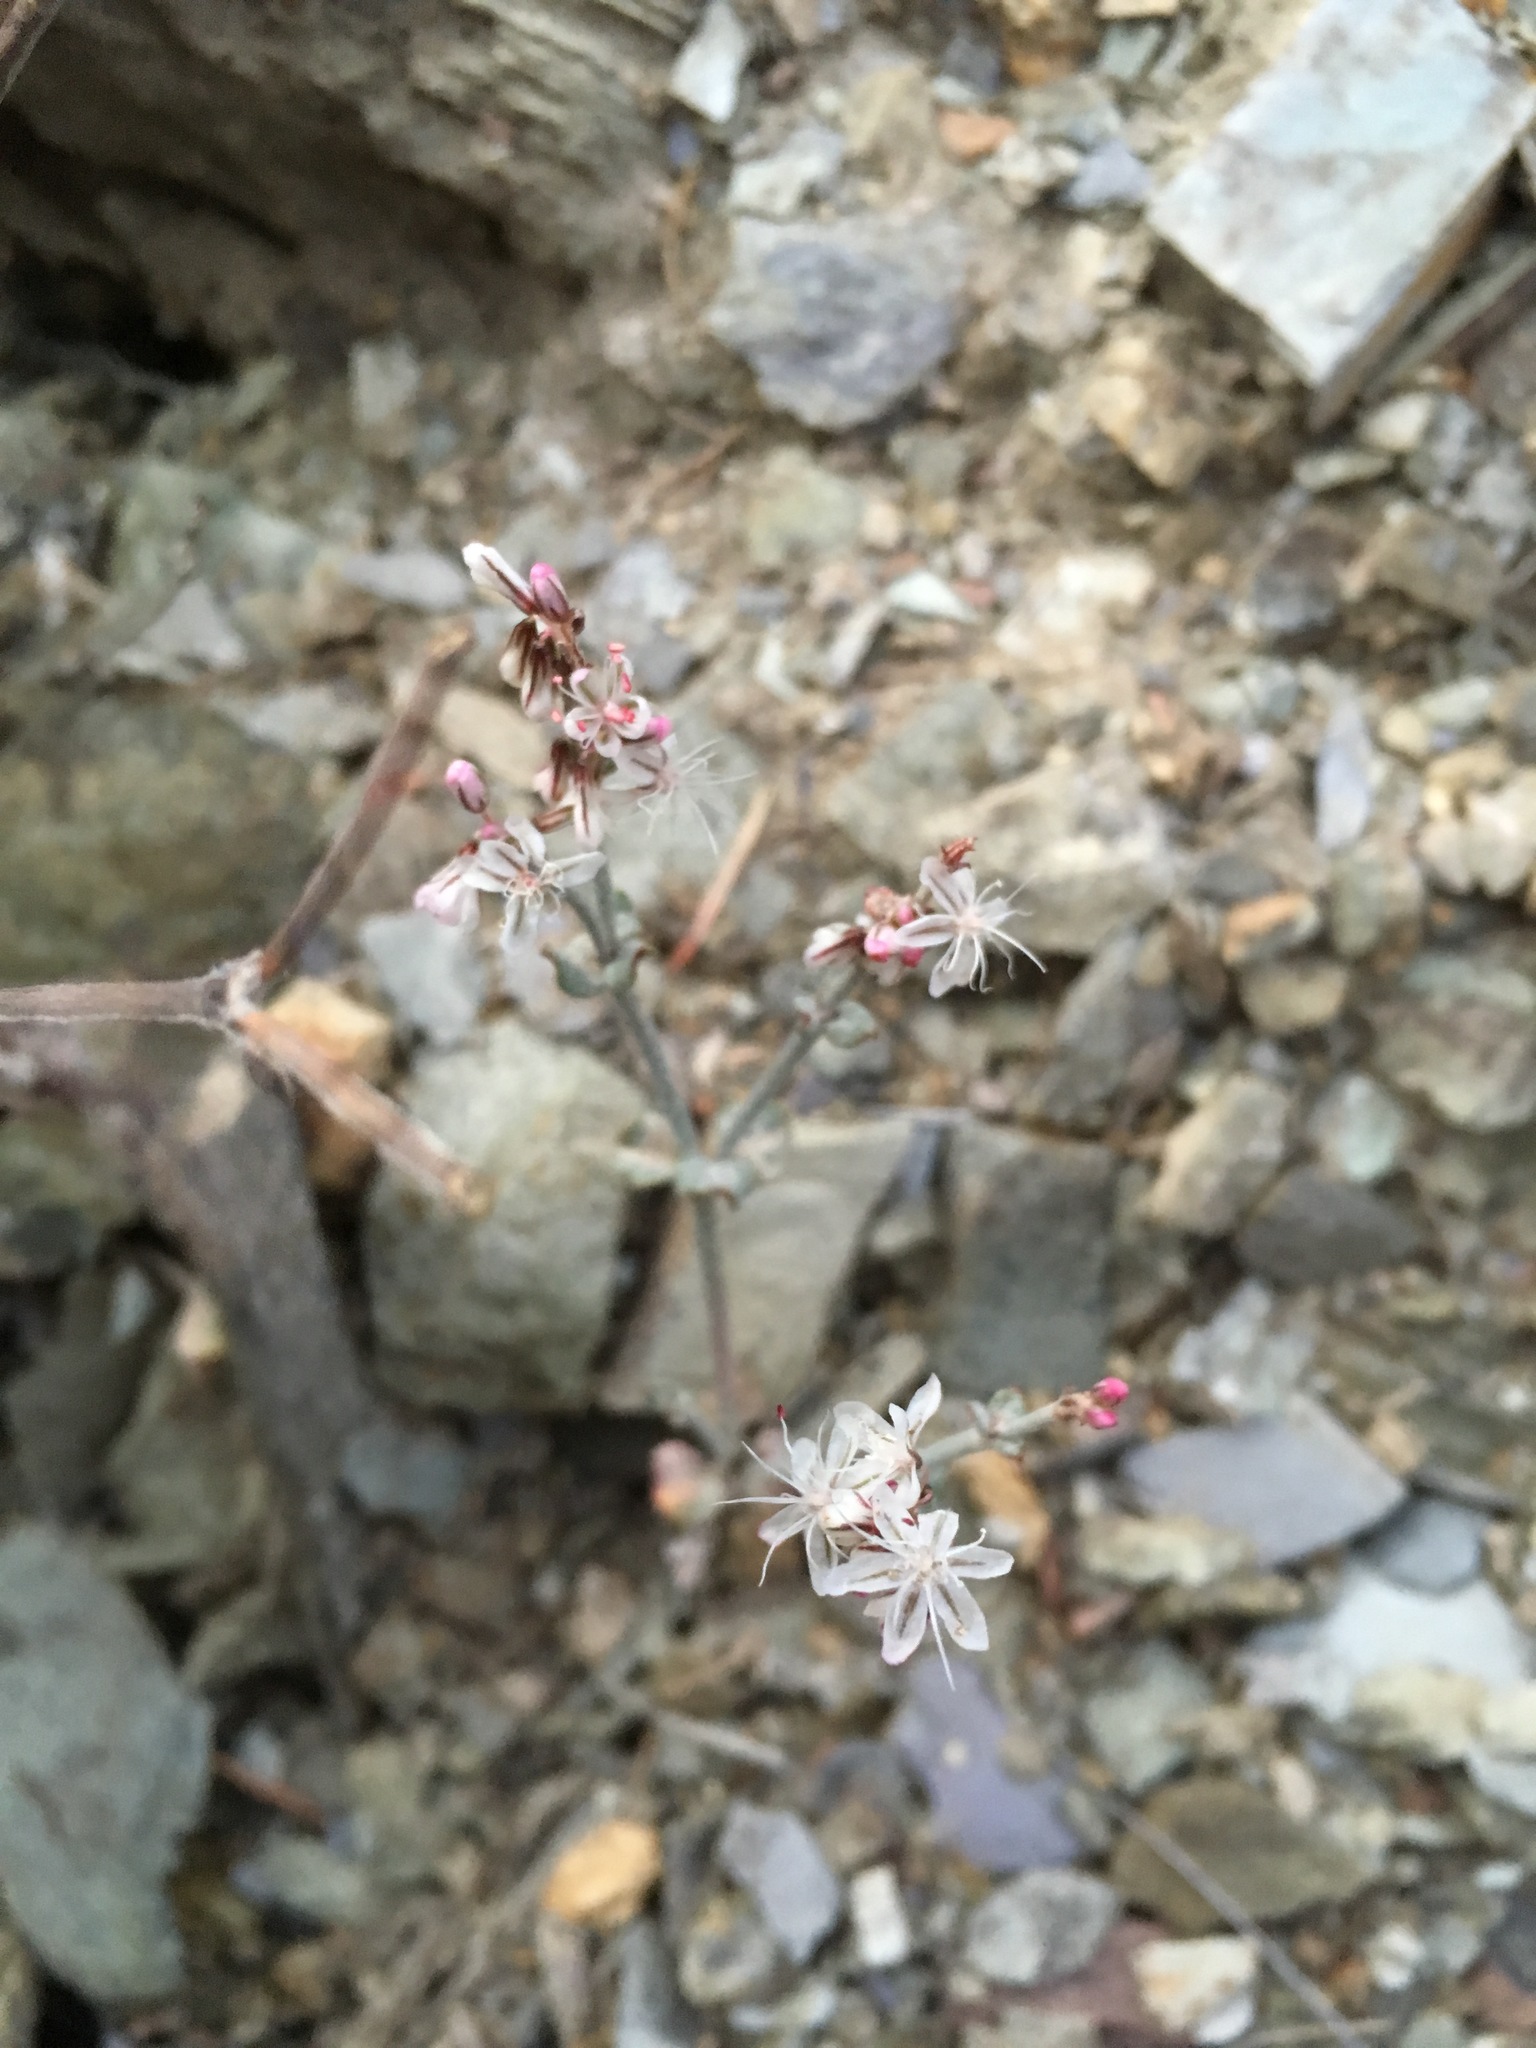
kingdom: Plantae
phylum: Tracheophyta
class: Magnoliopsida
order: Caryophyllales
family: Polygonaceae
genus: Eriogonum
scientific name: Eriogonum panamintense
